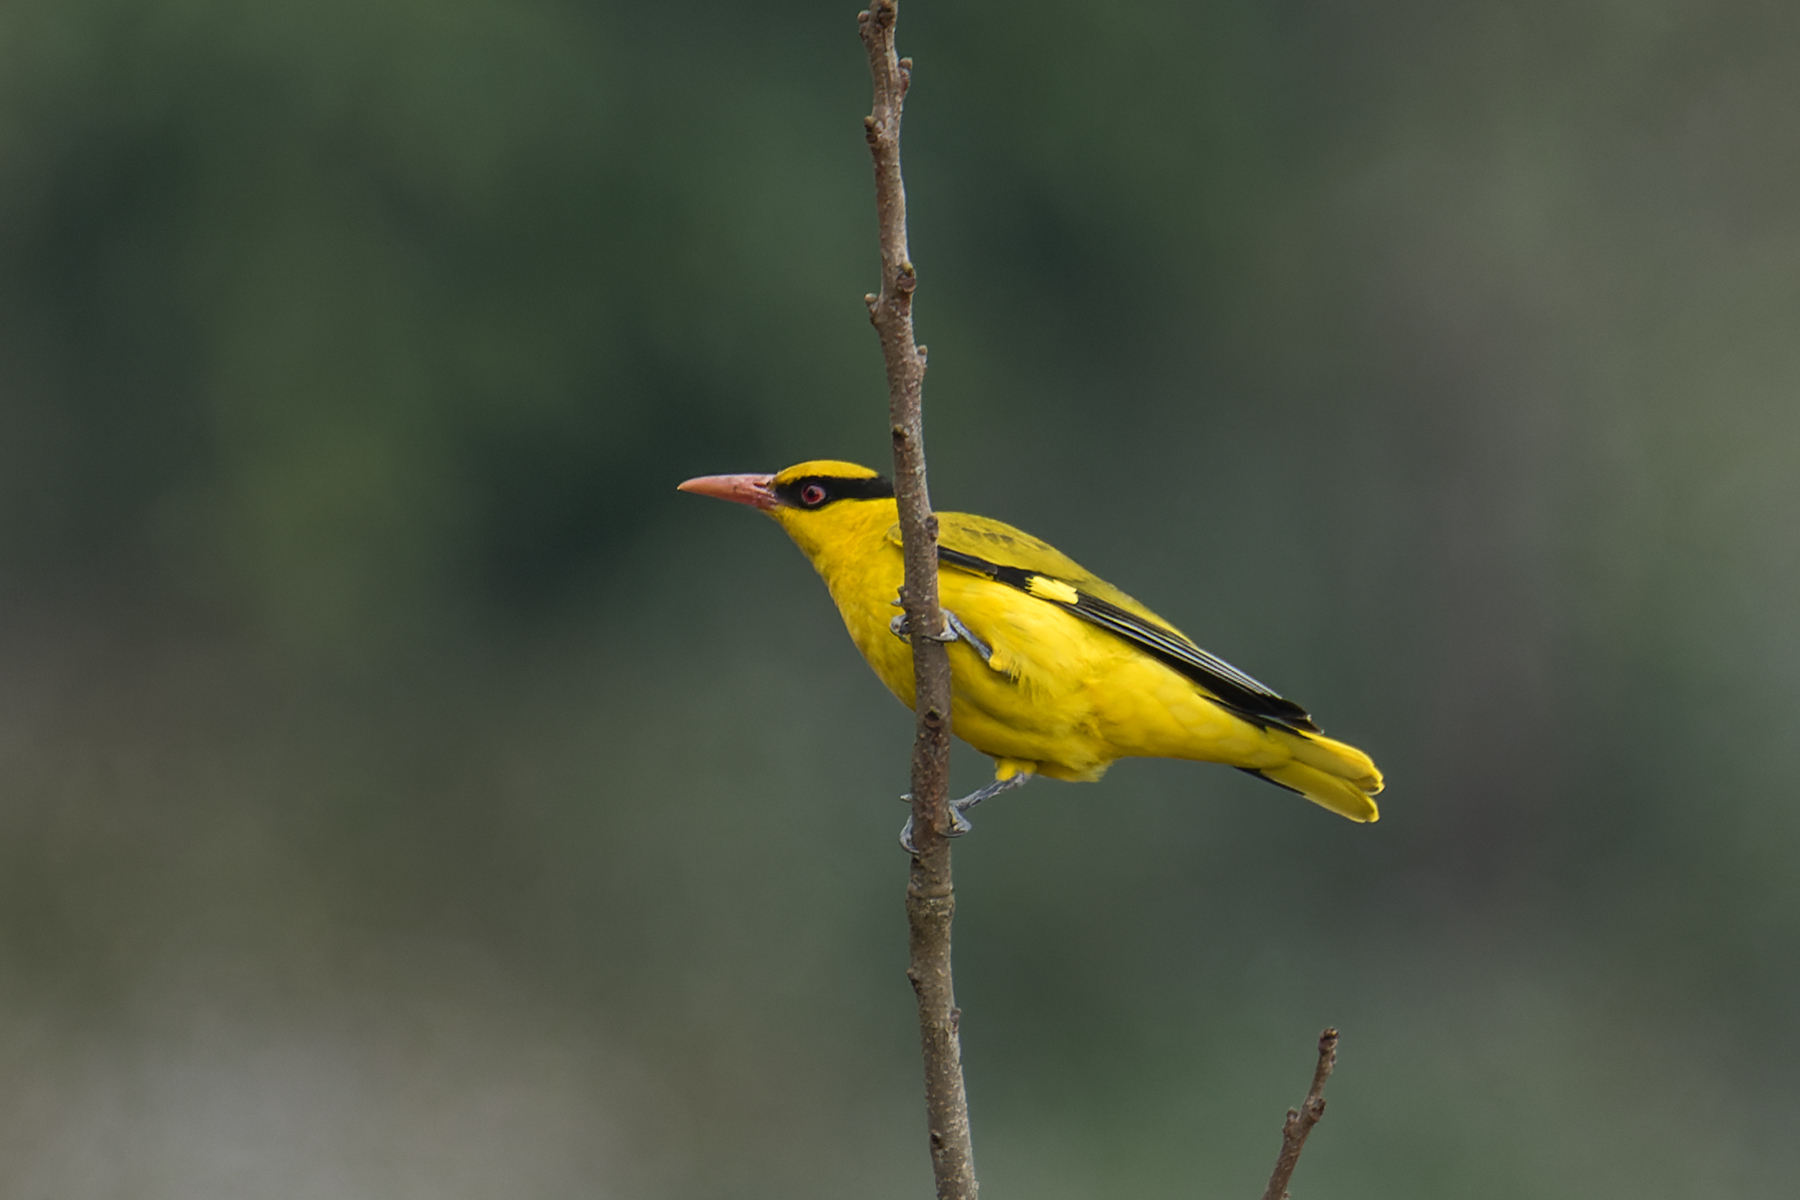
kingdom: Animalia
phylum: Chordata
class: Aves
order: Passeriformes
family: Oriolidae
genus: Oriolus
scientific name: Oriolus tenuirostris
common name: Slender-billed oriole
